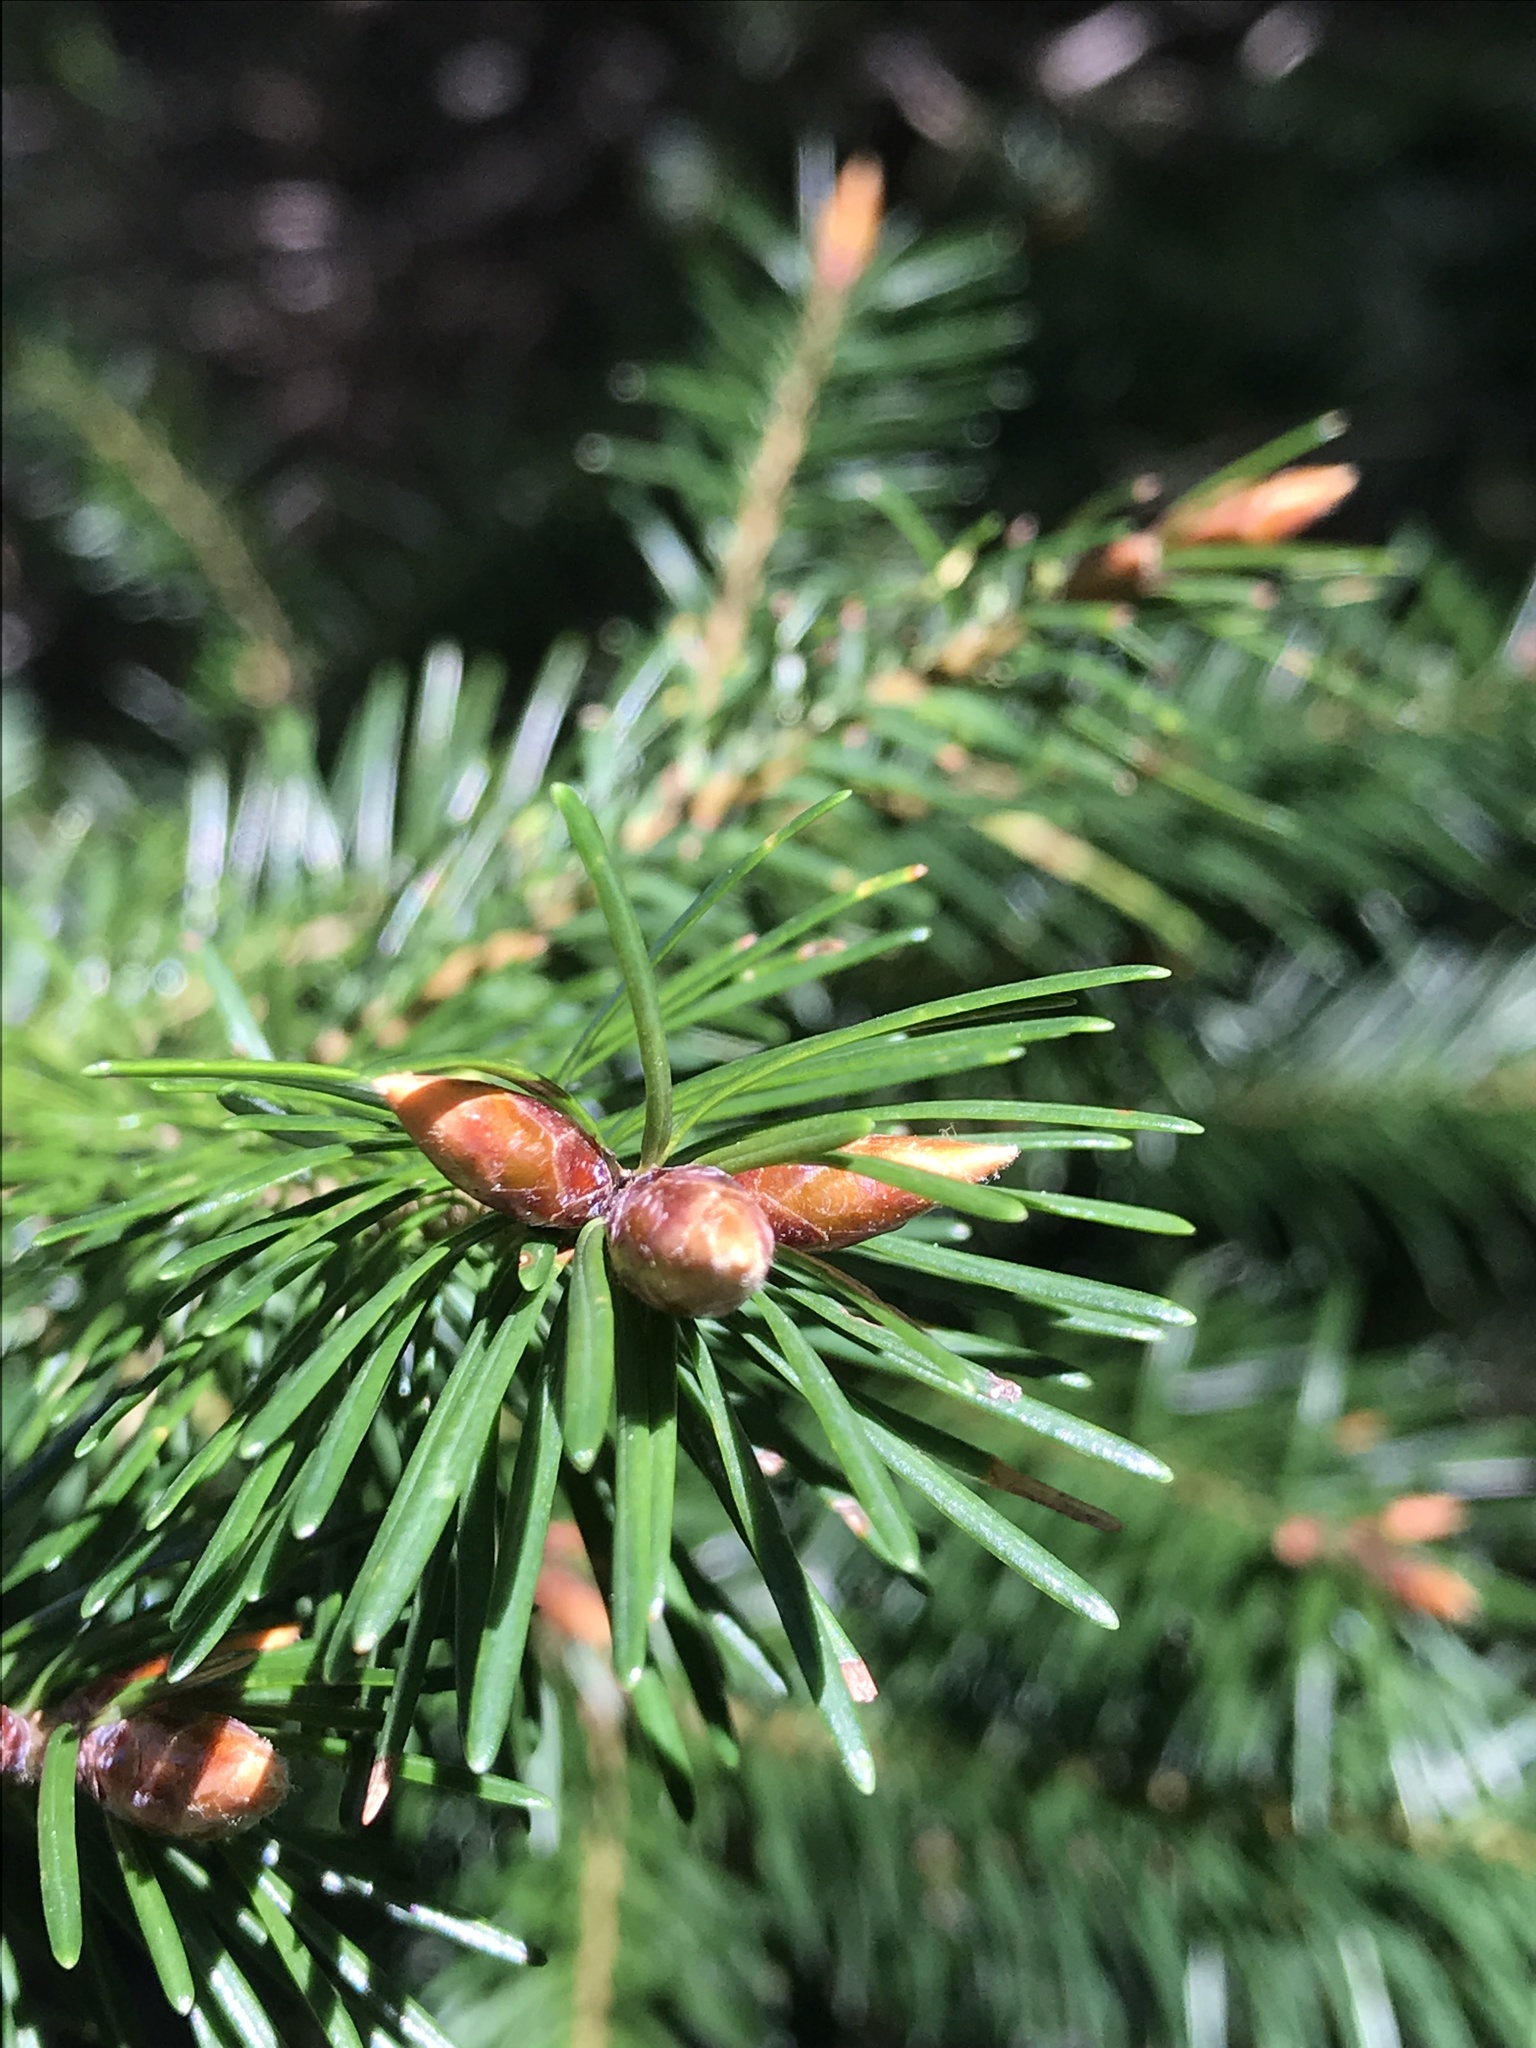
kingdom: Plantae
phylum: Tracheophyta
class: Pinopsida
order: Pinales
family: Pinaceae
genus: Pseudotsuga
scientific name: Pseudotsuga menziesii
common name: Douglas fir
